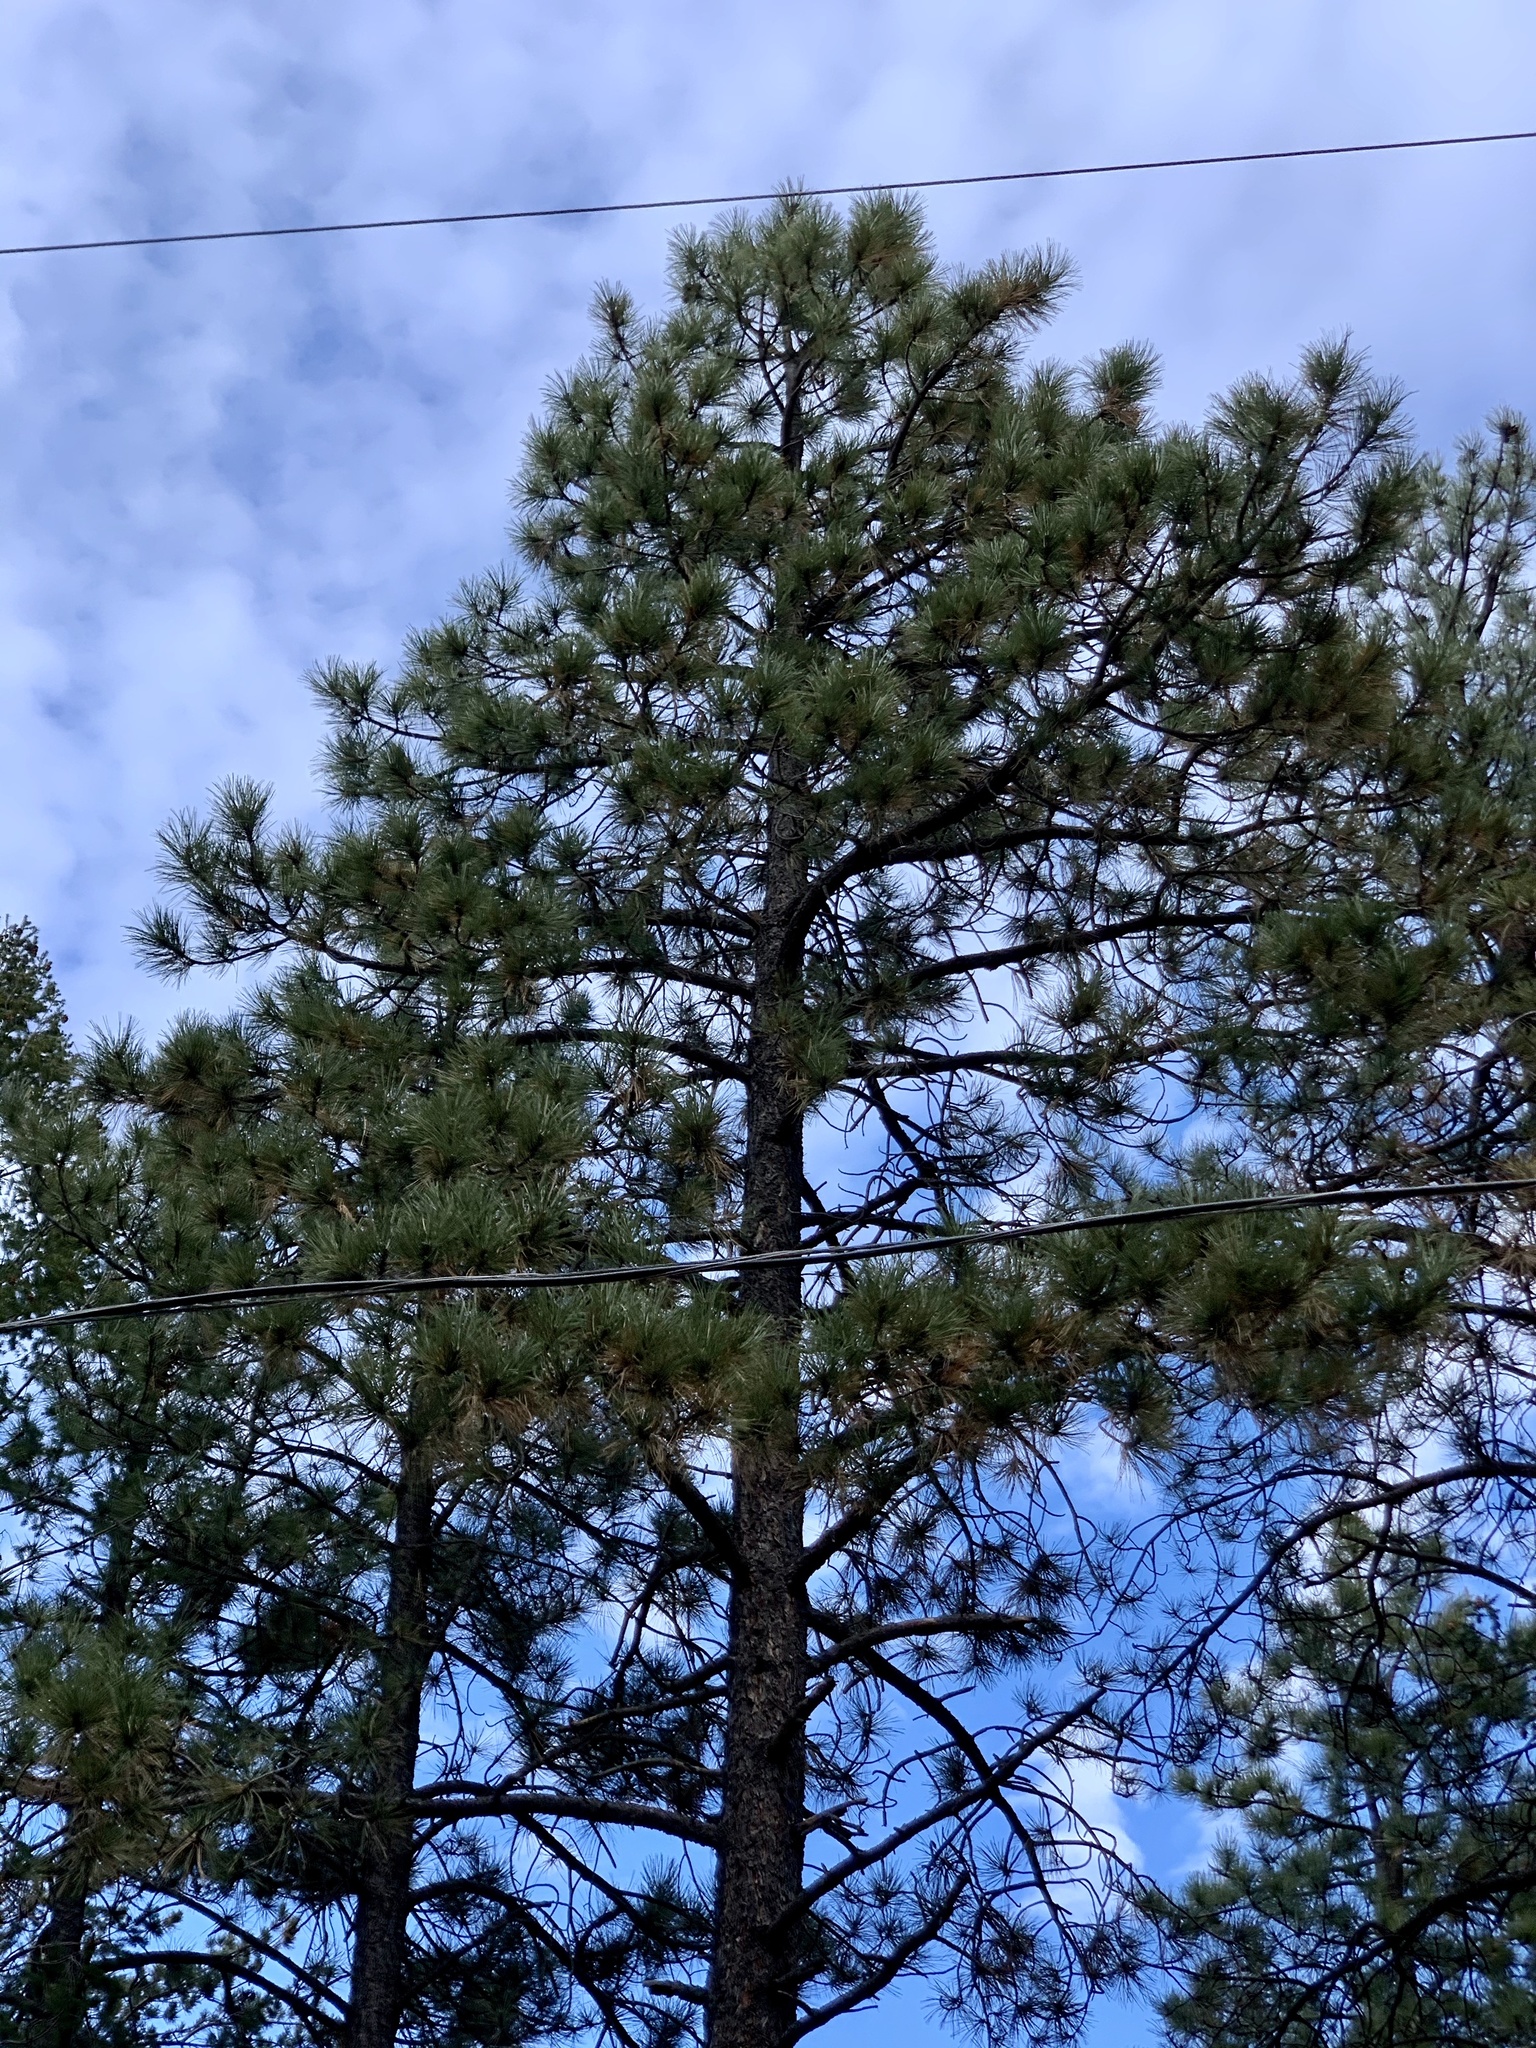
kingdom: Plantae
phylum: Tracheophyta
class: Pinopsida
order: Pinales
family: Pinaceae
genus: Pinus
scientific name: Pinus ponderosa
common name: Western yellow-pine
